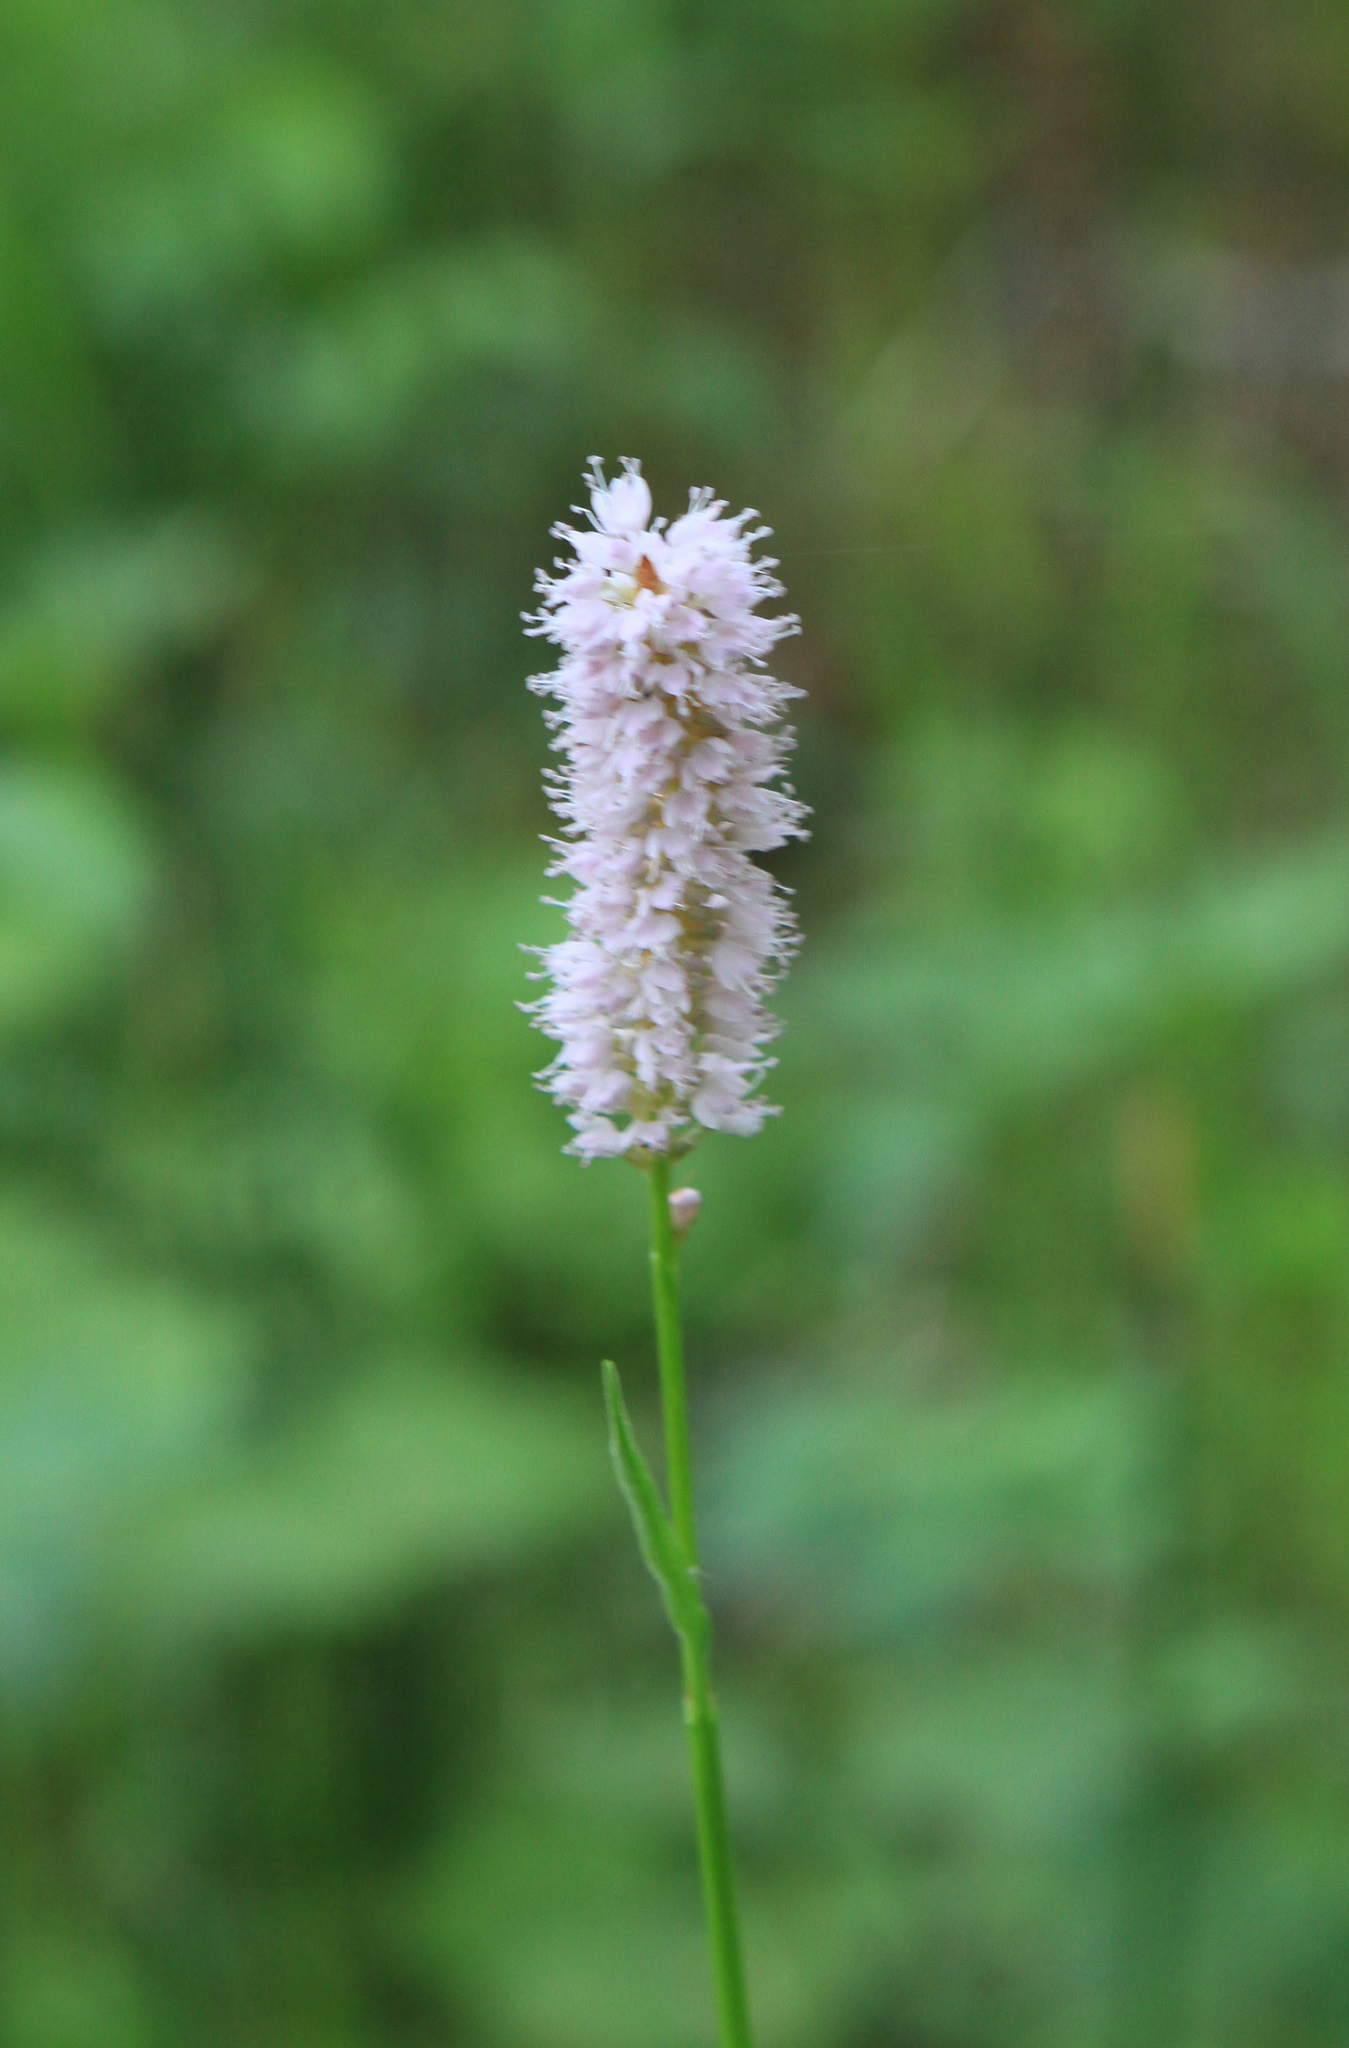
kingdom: Plantae
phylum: Tracheophyta
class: Magnoliopsida
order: Caryophyllales
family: Polygonaceae
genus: Bistorta
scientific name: Bistorta officinalis
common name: Common bistort
